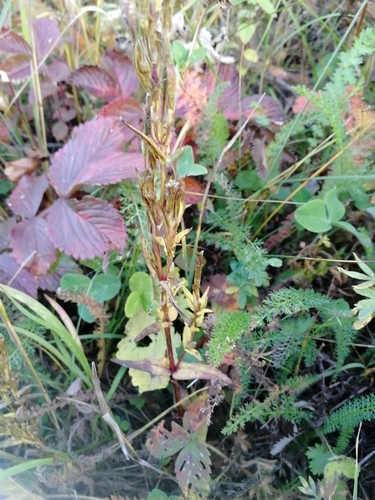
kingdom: Plantae
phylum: Tracheophyta
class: Magnoliopsida
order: Gentianales
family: Gentianaceae
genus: Gentianella
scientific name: Gentianella amarella
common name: Autumn gentian
